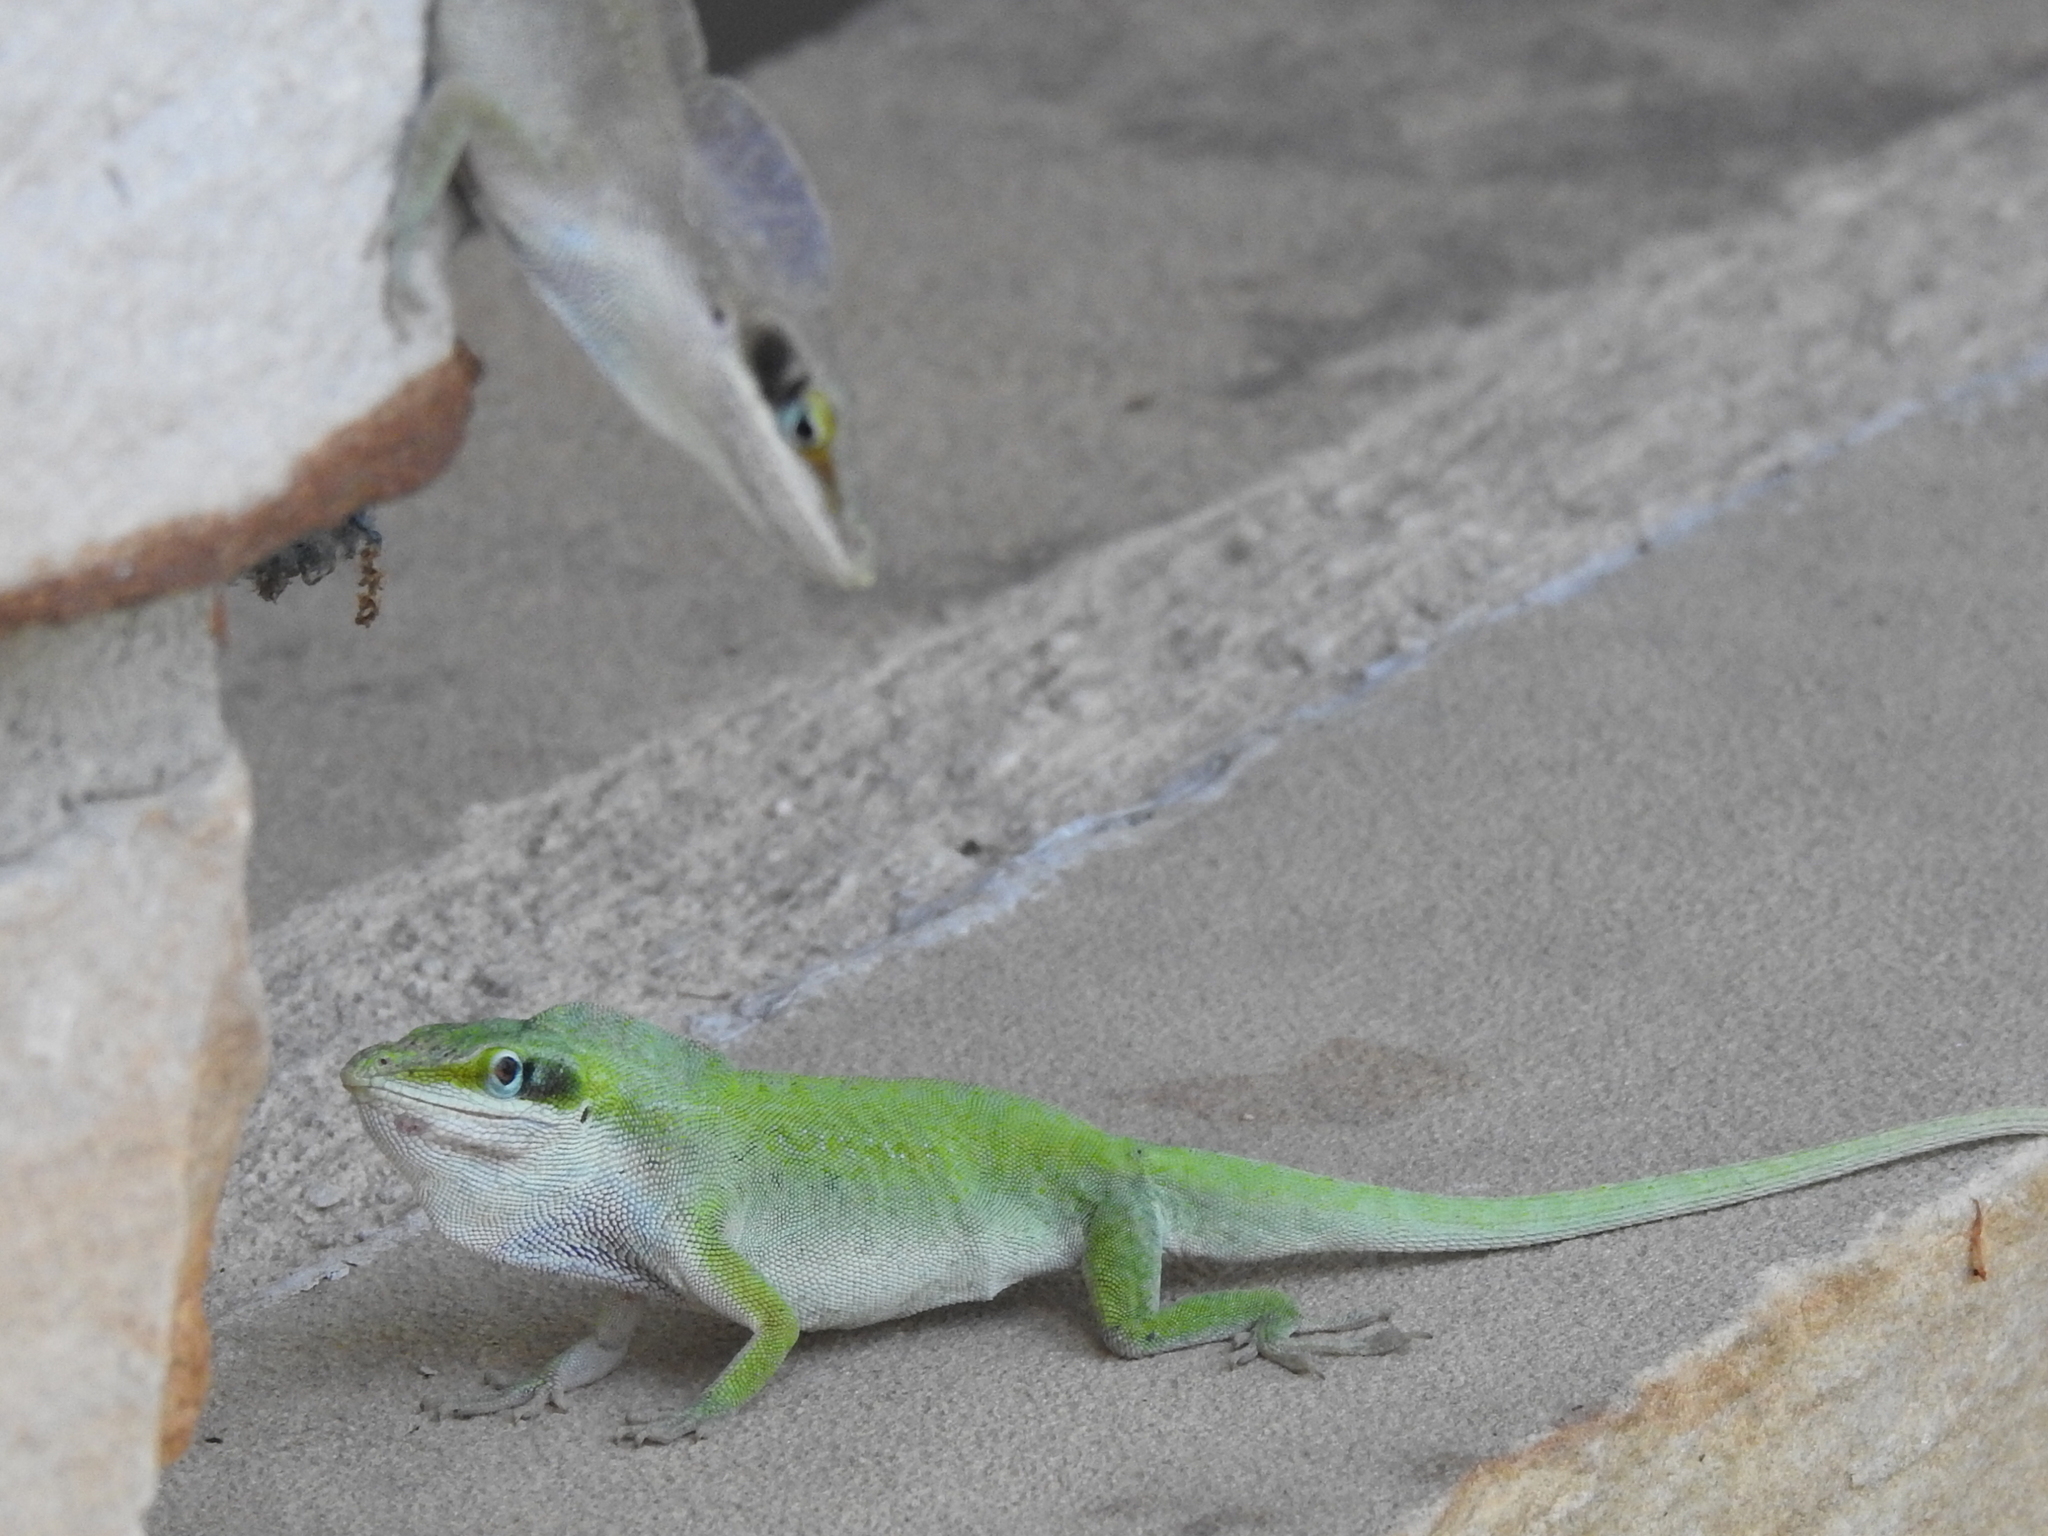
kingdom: Animalia
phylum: Chordata
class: Squamata
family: Dactyloidae
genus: Anolis
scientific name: Anolis carolinensis
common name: Green anole
